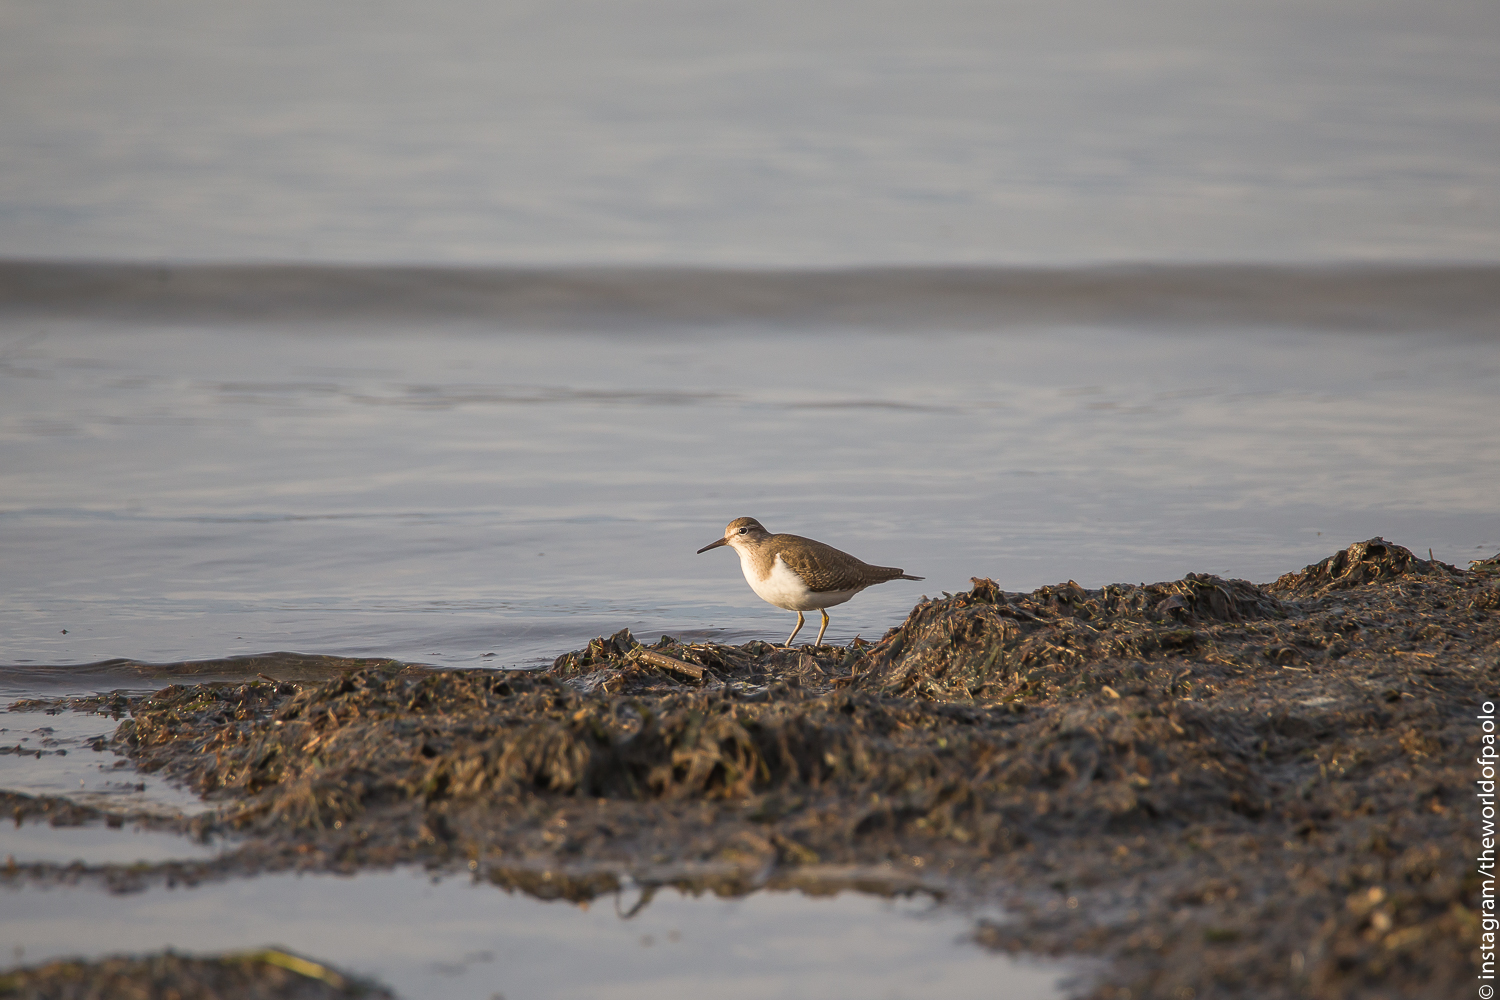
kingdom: Animalia
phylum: Chordata
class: Aves
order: Charadriiformes
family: Scolopacidae
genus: Actitis
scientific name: Actitis hypoleucos
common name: Common sandpiper
